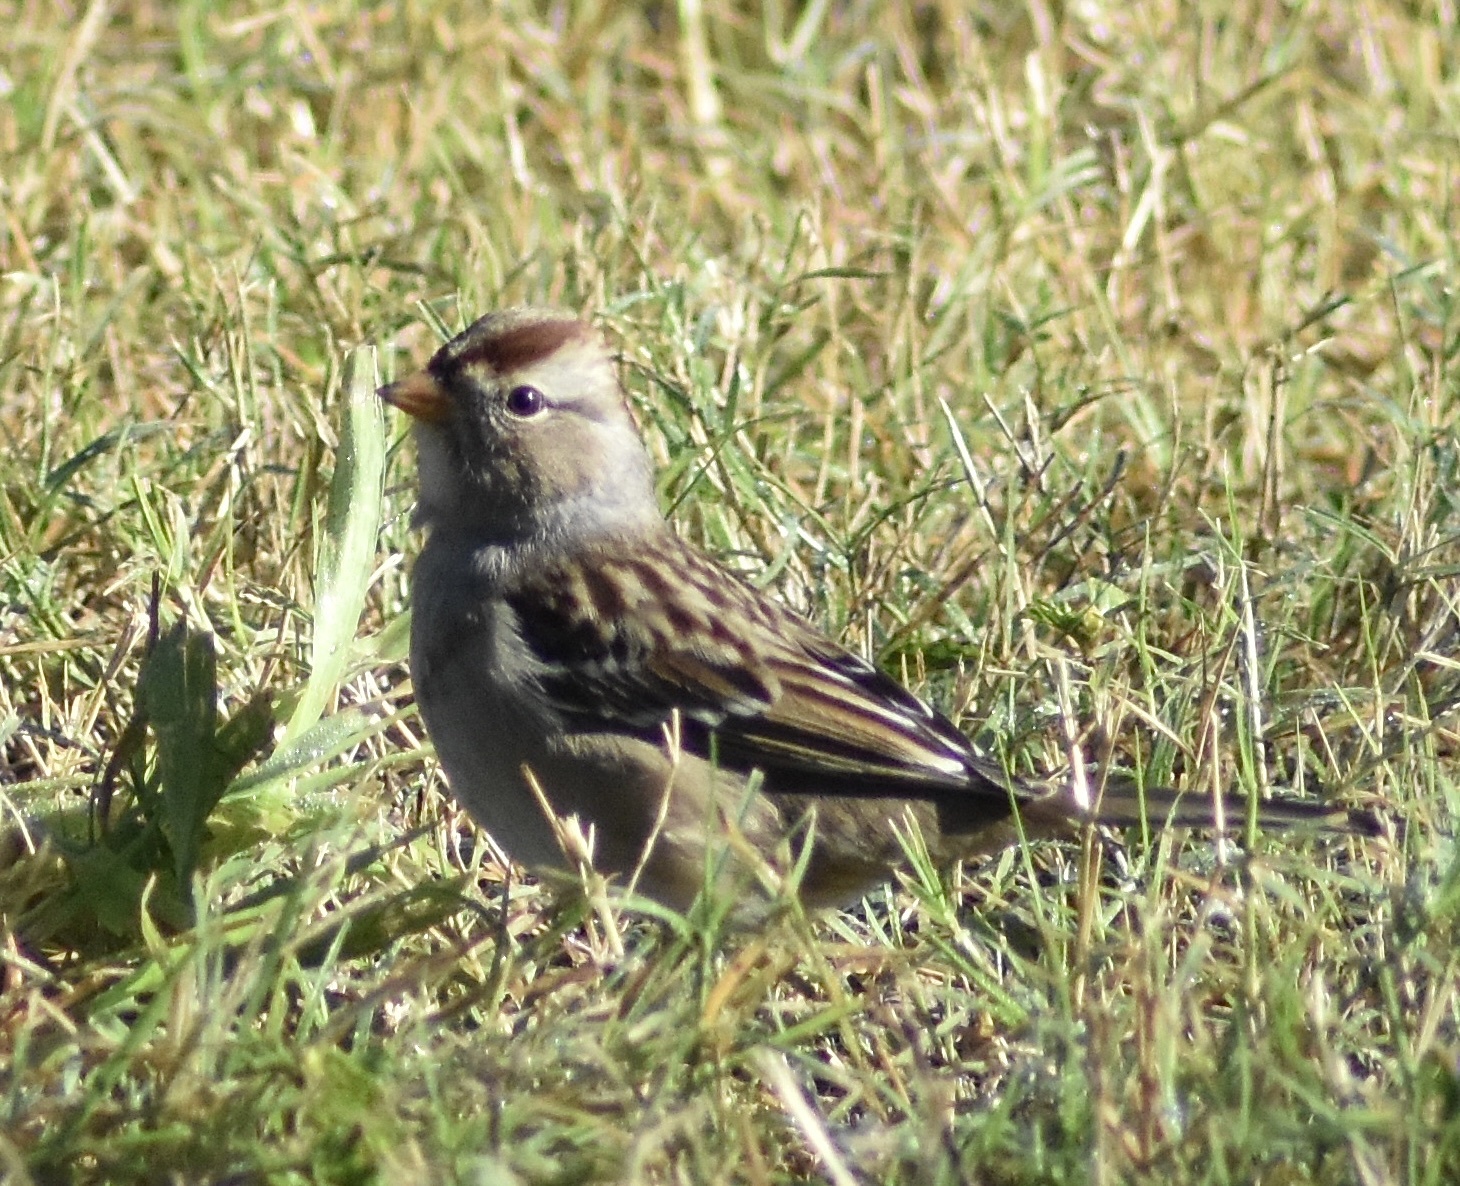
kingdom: Animalia
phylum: Chordata
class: Aves
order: Passeriformes
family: Passerellidae
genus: Zonotrichia
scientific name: Zonotrichia leucophrys
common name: White-crowned sparrow
